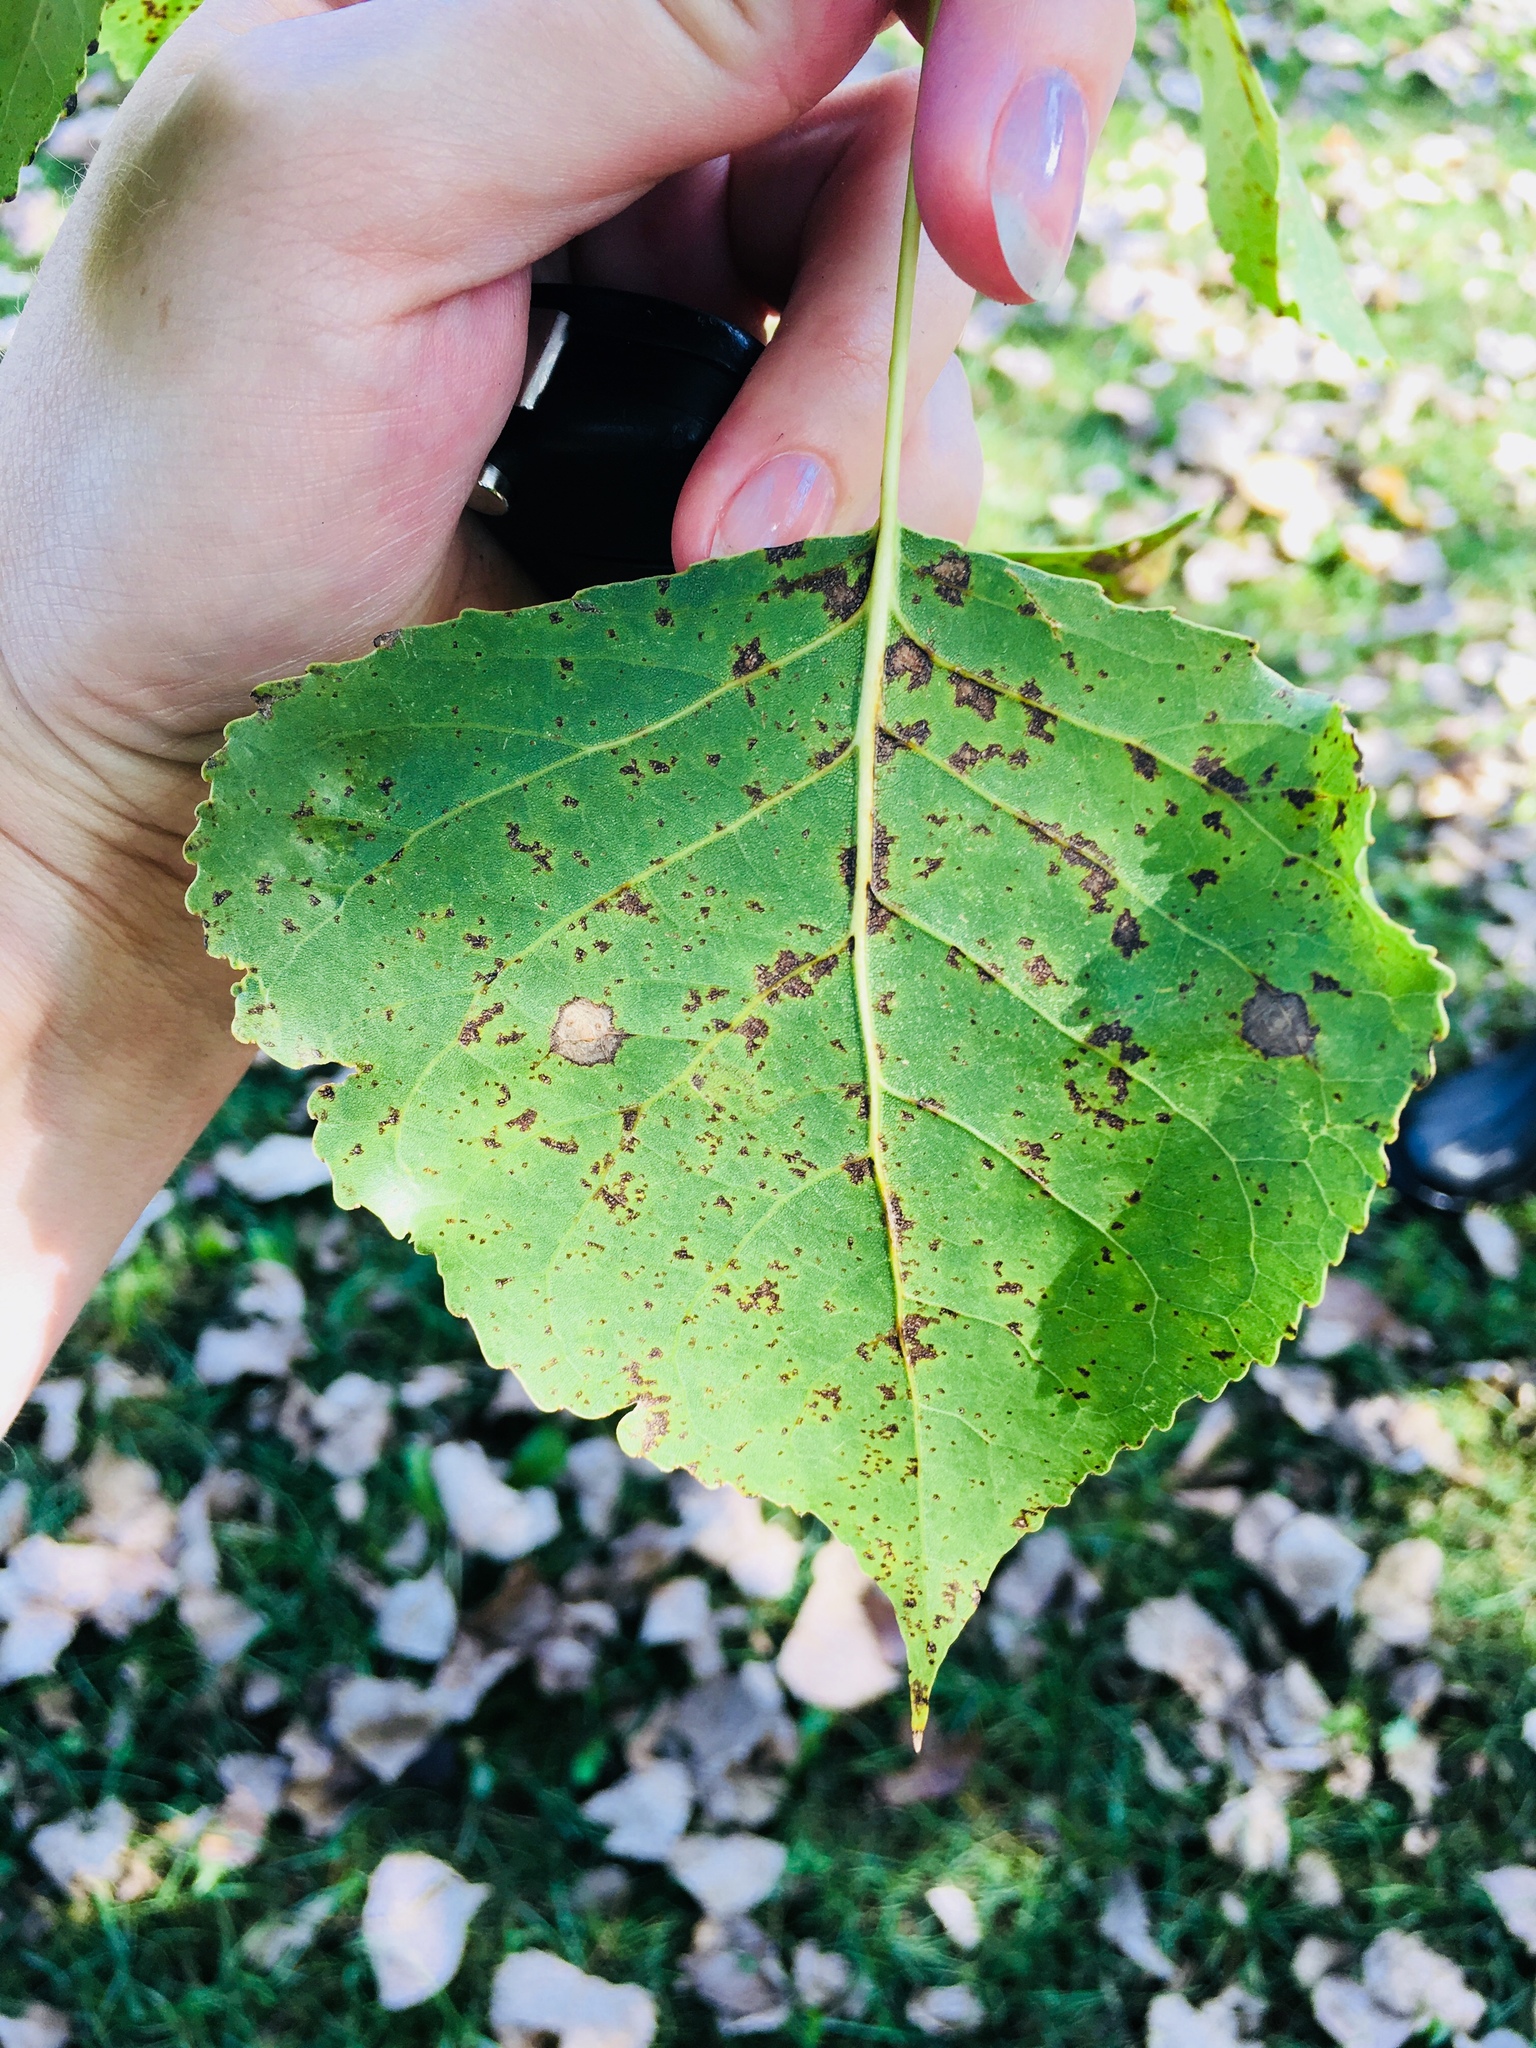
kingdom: Plantae
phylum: Tracheophyta
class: Magnoliopsida
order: Malpighiales
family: Salicaceae
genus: Populus
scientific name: Populus deltoides
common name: Eastern cottonwood
